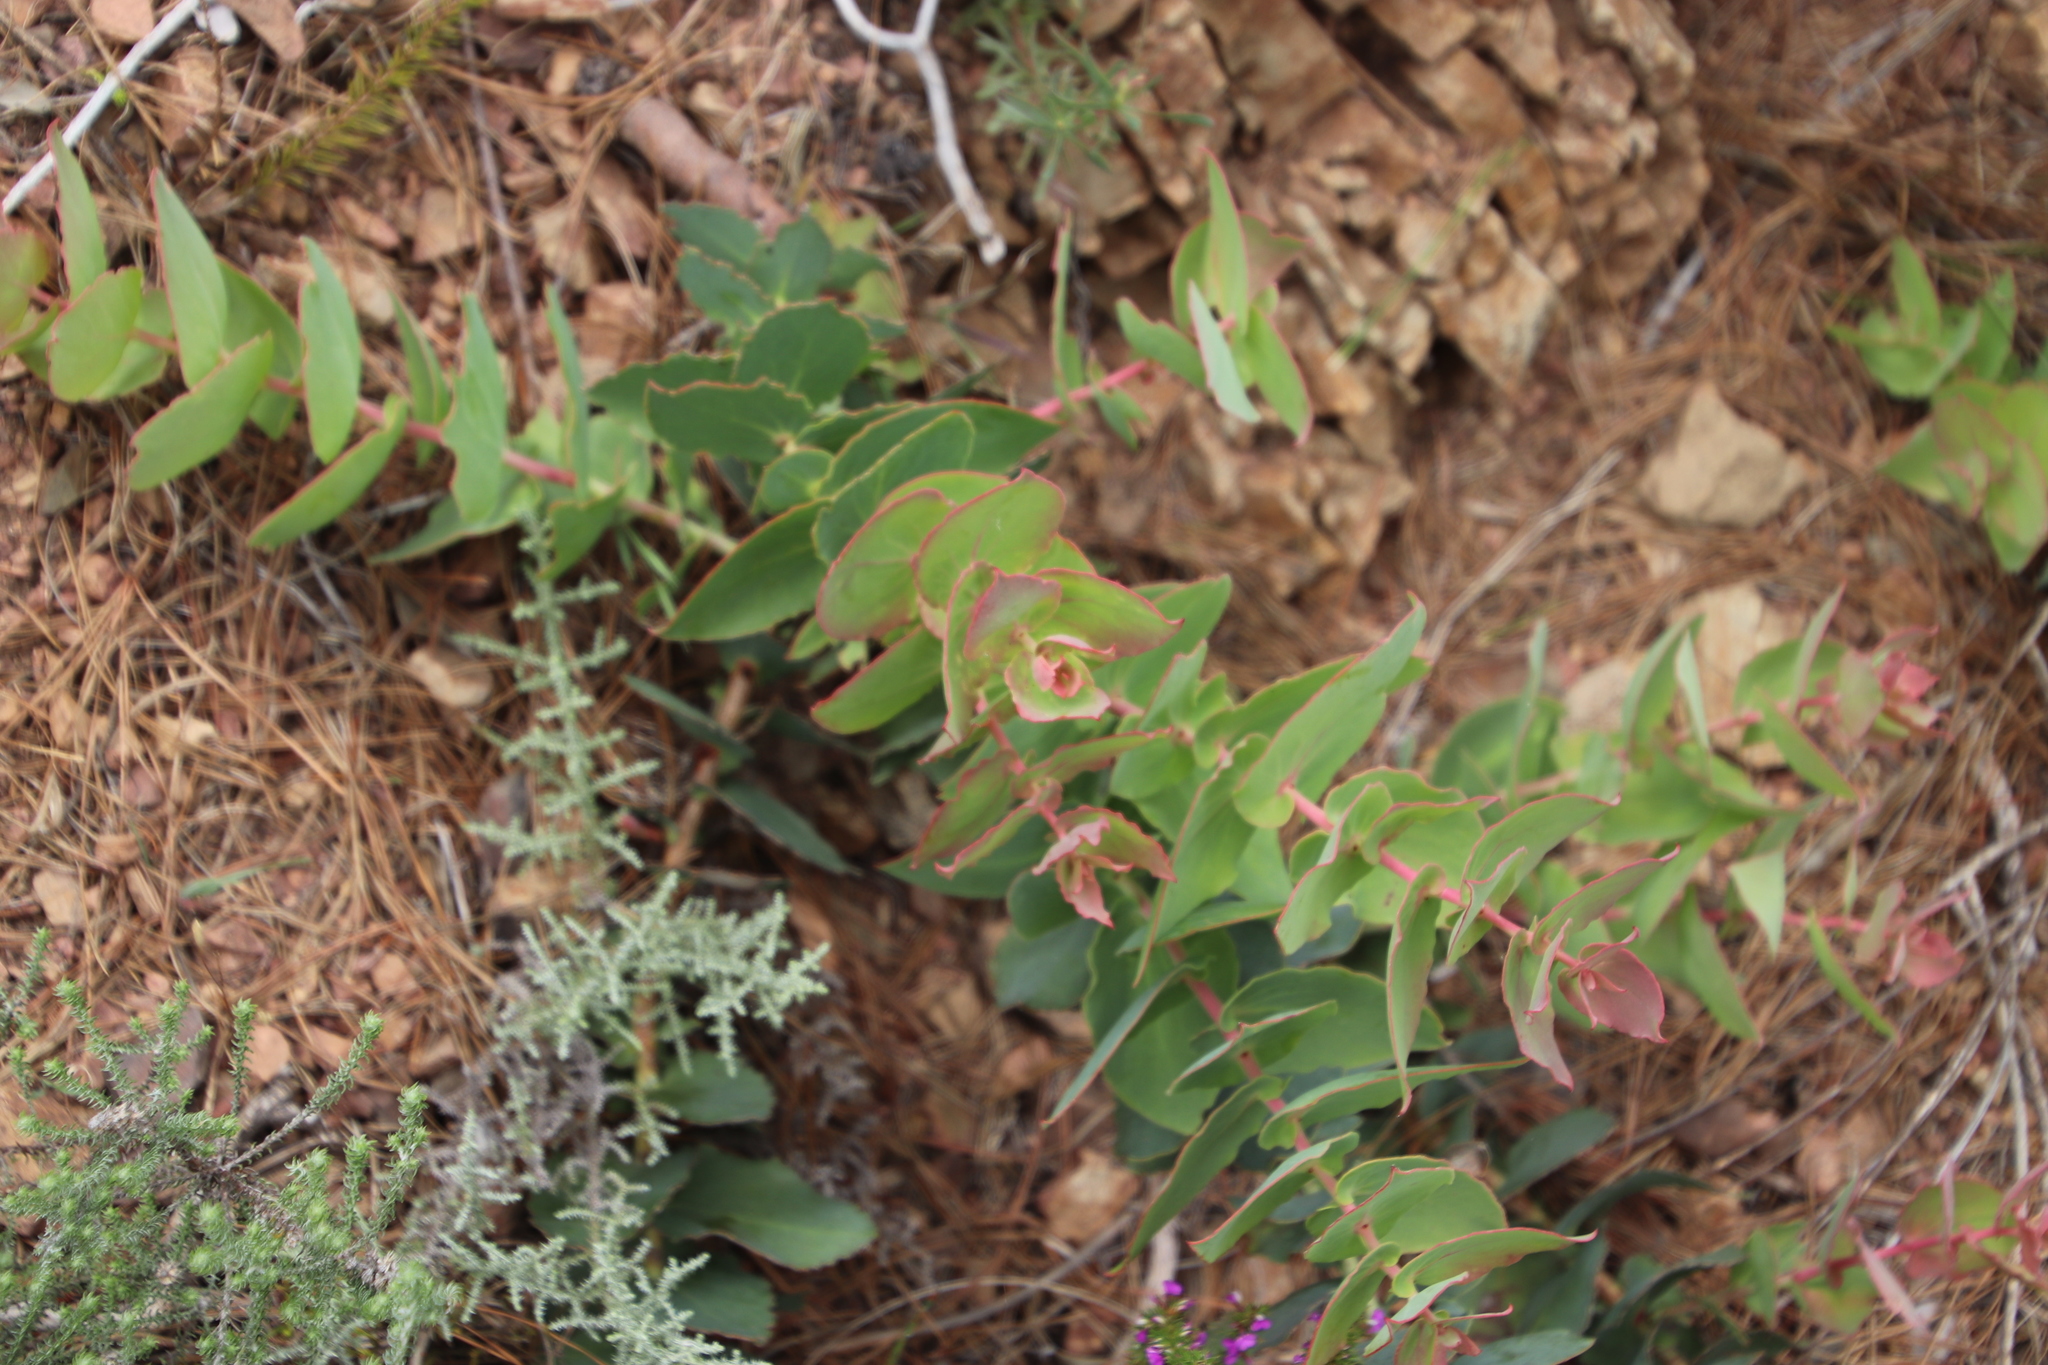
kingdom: Plantae
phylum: Tracheophyta
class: Magnoliopsida
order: Proteales
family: Proteaceae
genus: Protea
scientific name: Protea amplexicaulis
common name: Clasping-leaf sugarbush
